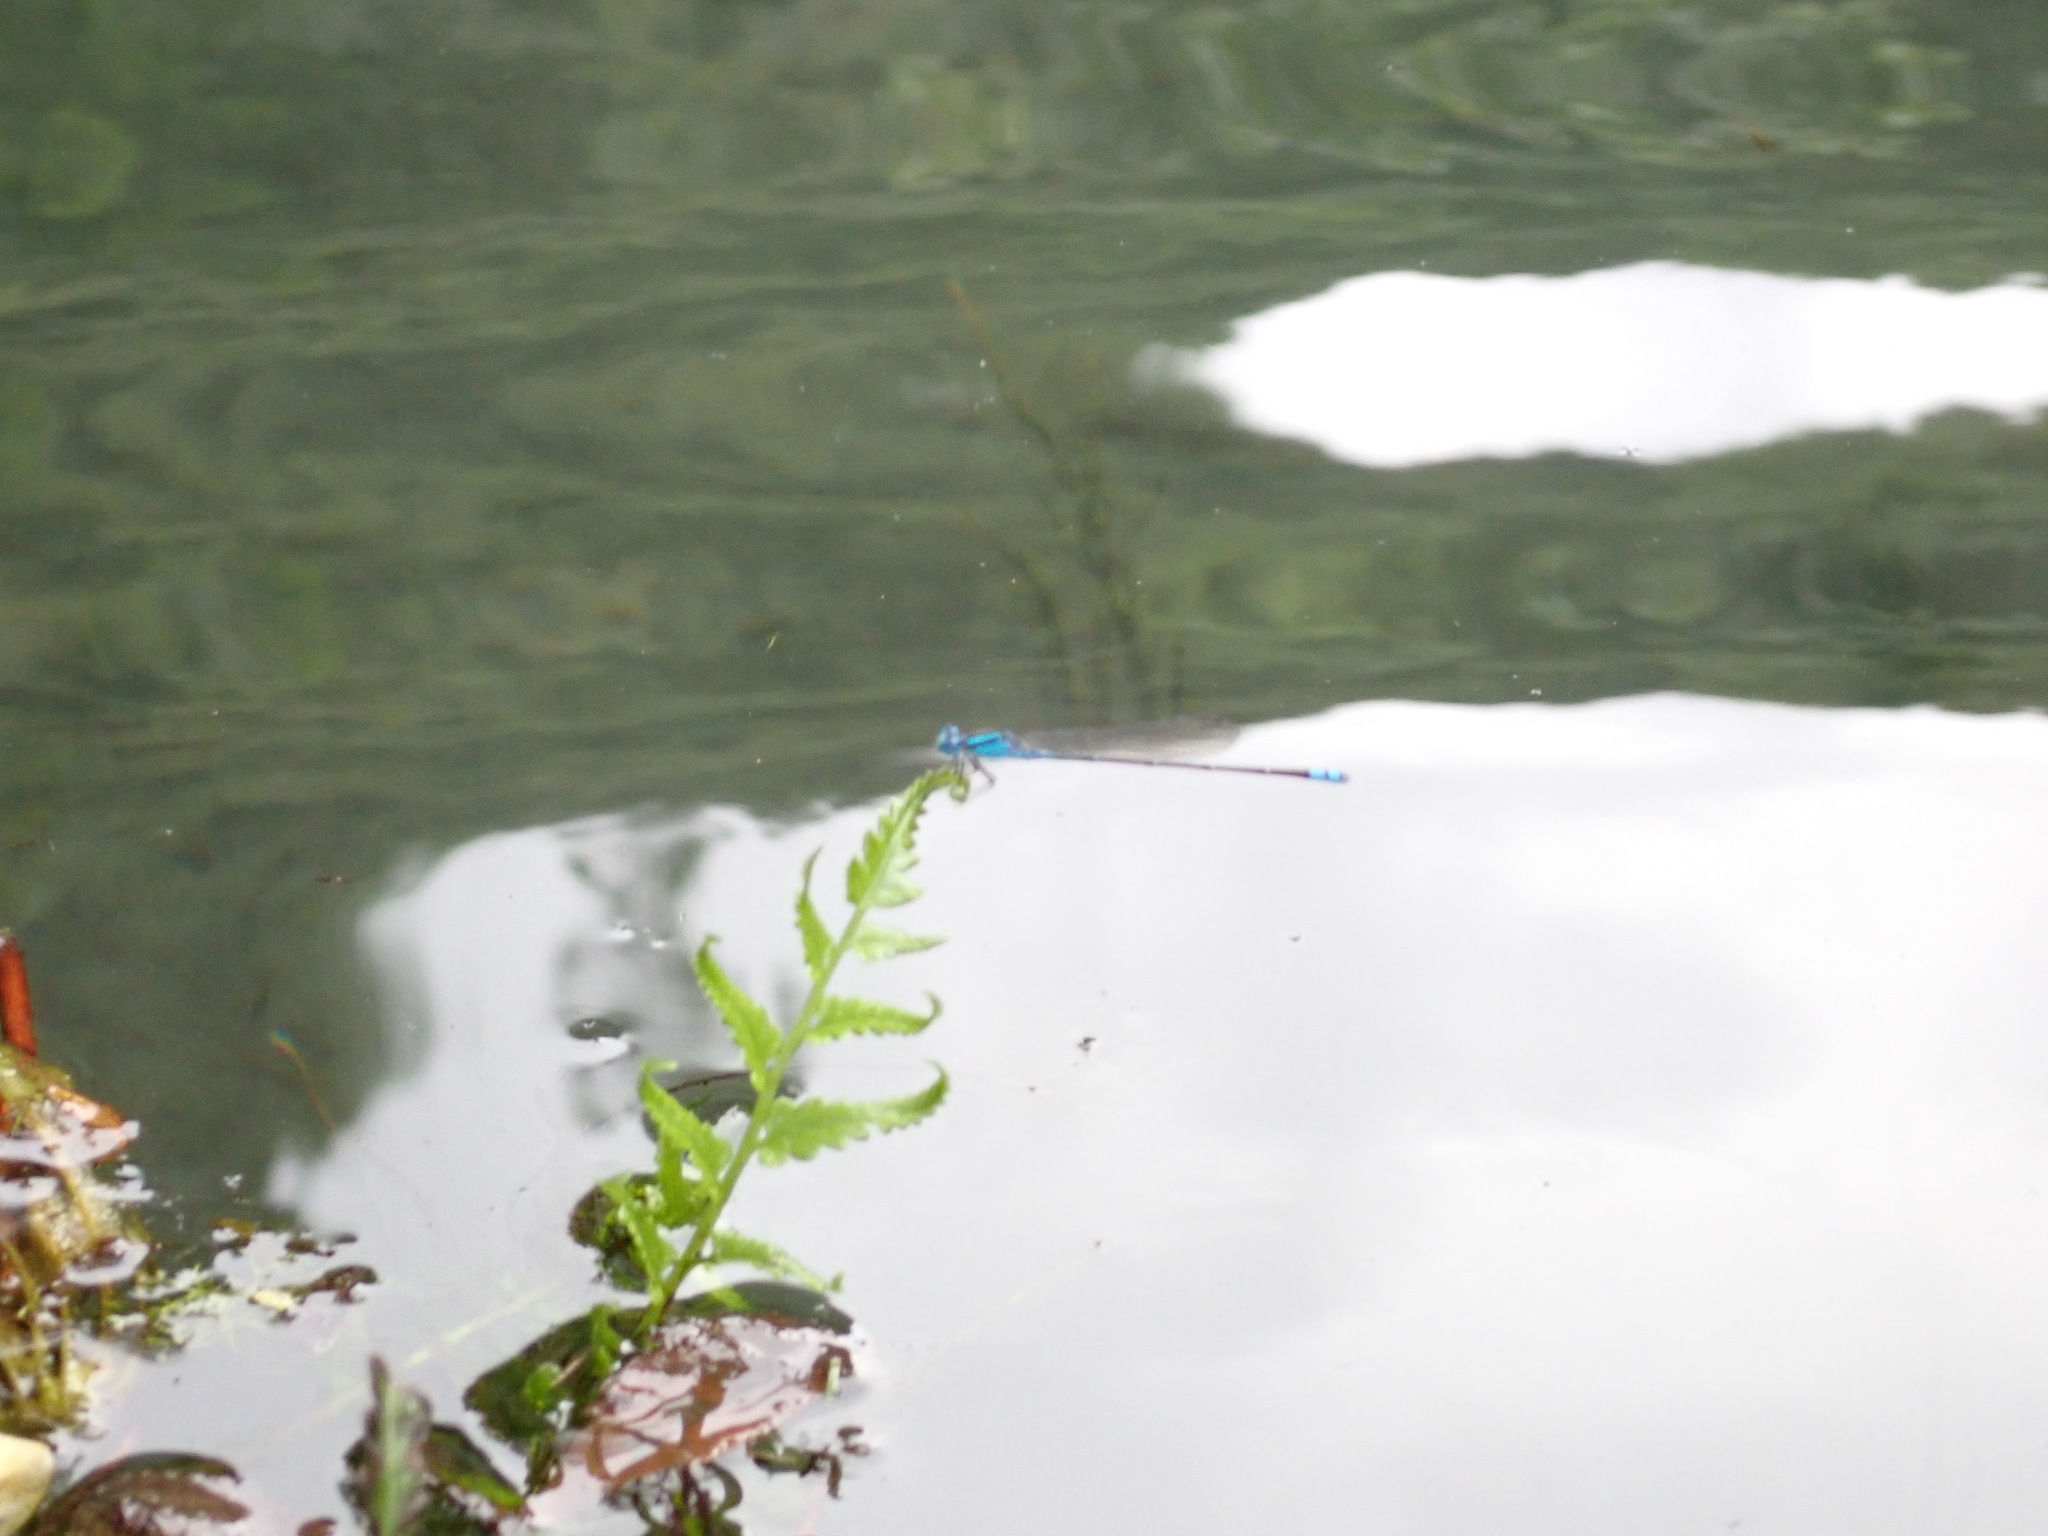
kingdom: Animalia
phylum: Arthropoda
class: Insecta
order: Odonata
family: Coenagrionidae
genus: Pseudagrion
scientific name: Pseudagrion microcephalum
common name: Blue riverdamsel
